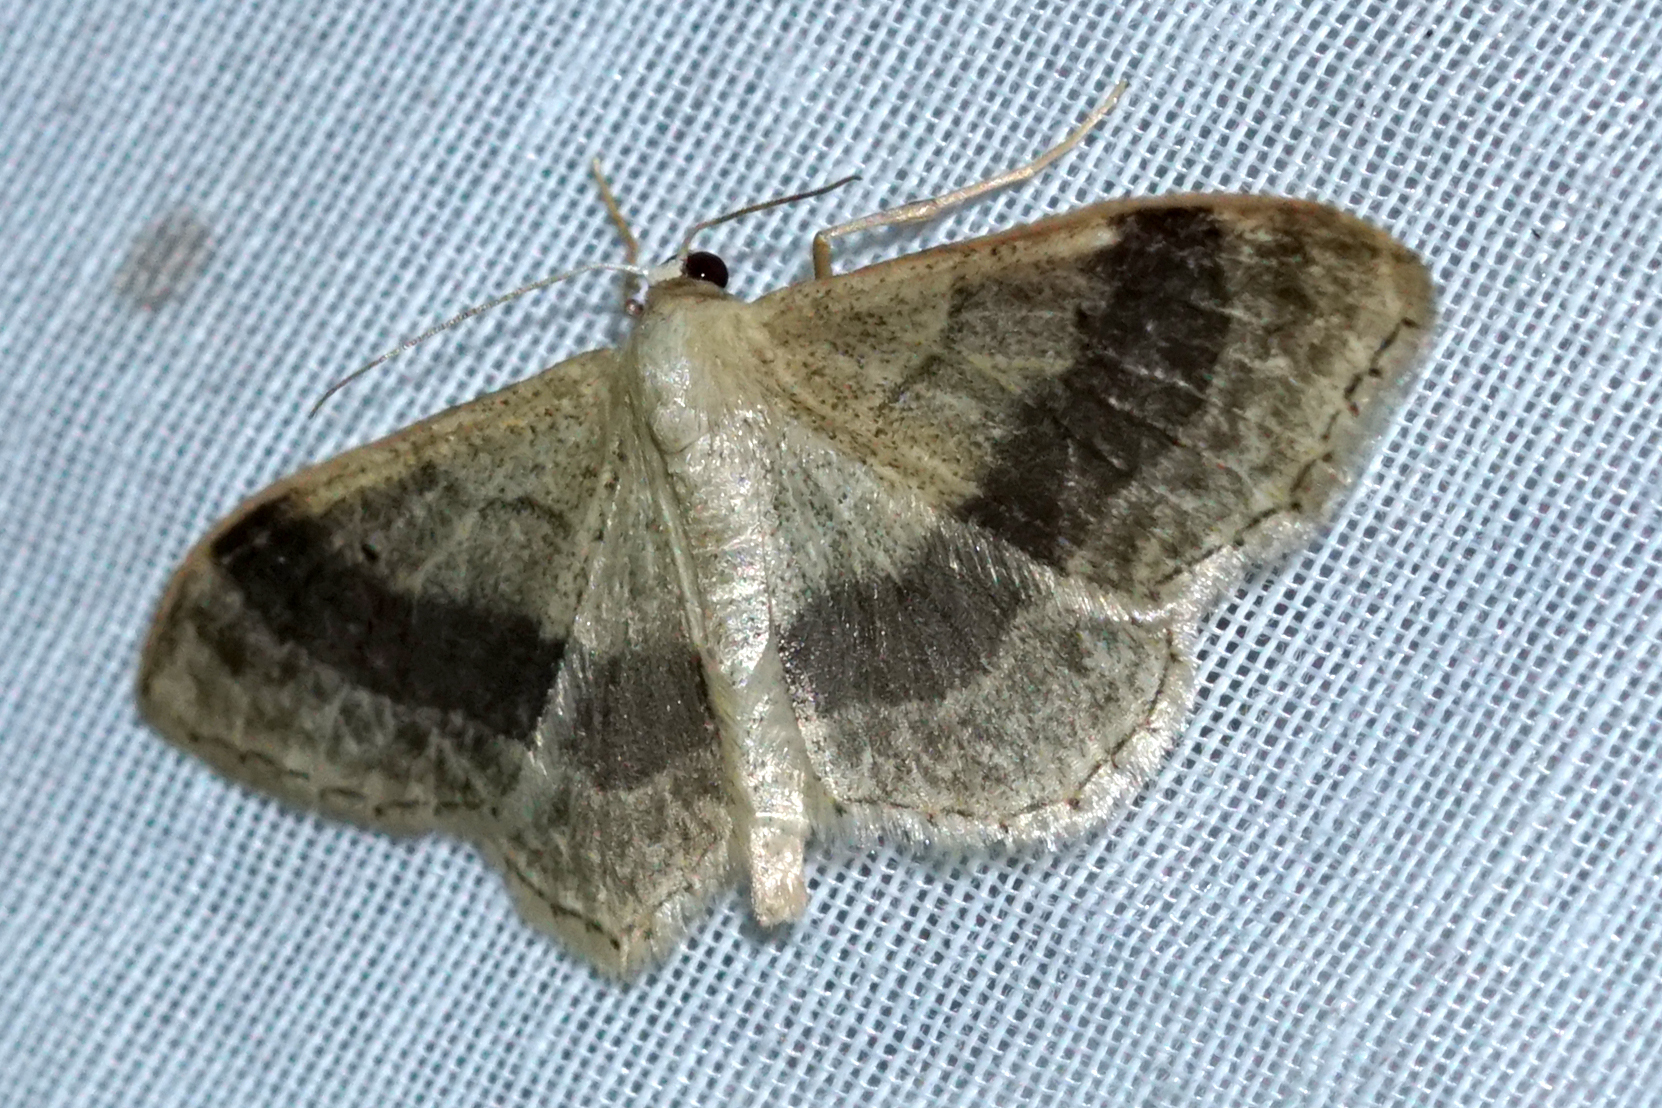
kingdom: Animalia
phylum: Arthropoda
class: Insecta
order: Lepidoptera
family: Geometridae
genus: Idaea
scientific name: Idaea aversata
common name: Riband wave
